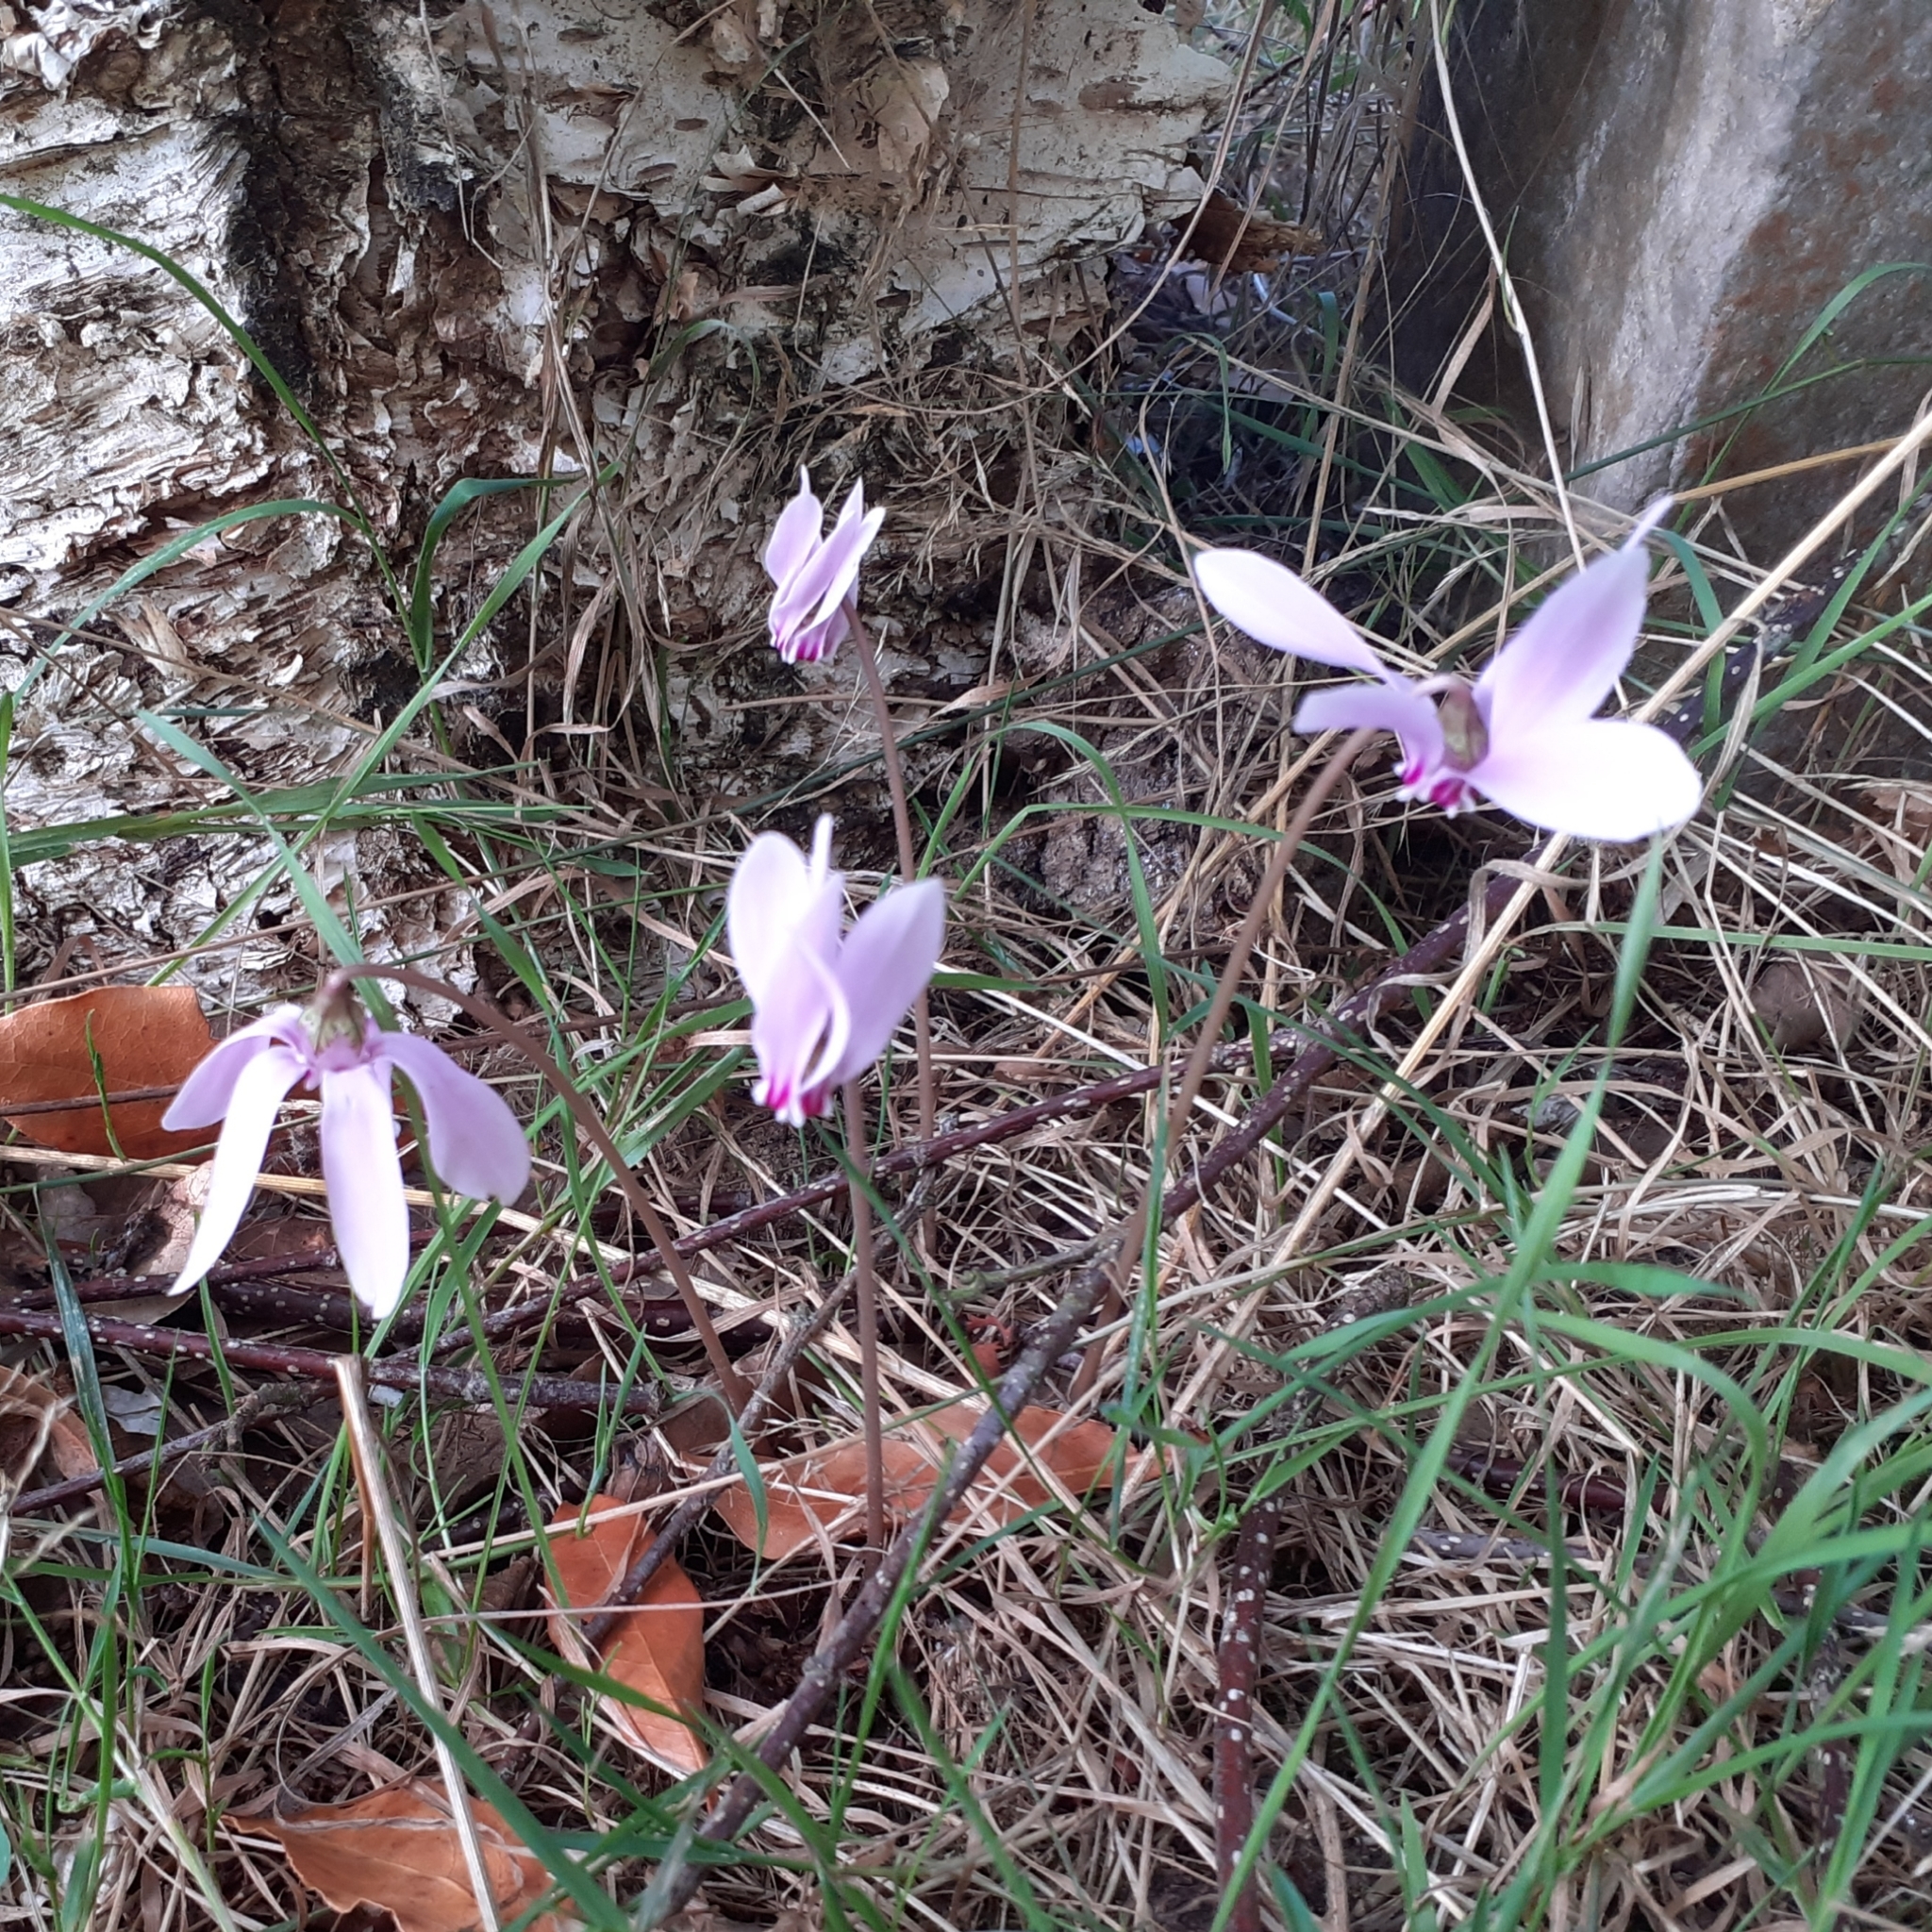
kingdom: Plantae
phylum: Tracheophyta
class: Magnoliopsida
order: Ericales
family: Primulaceae
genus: Cyclamen
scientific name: Cyclamen hederifolium
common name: Sowbread
